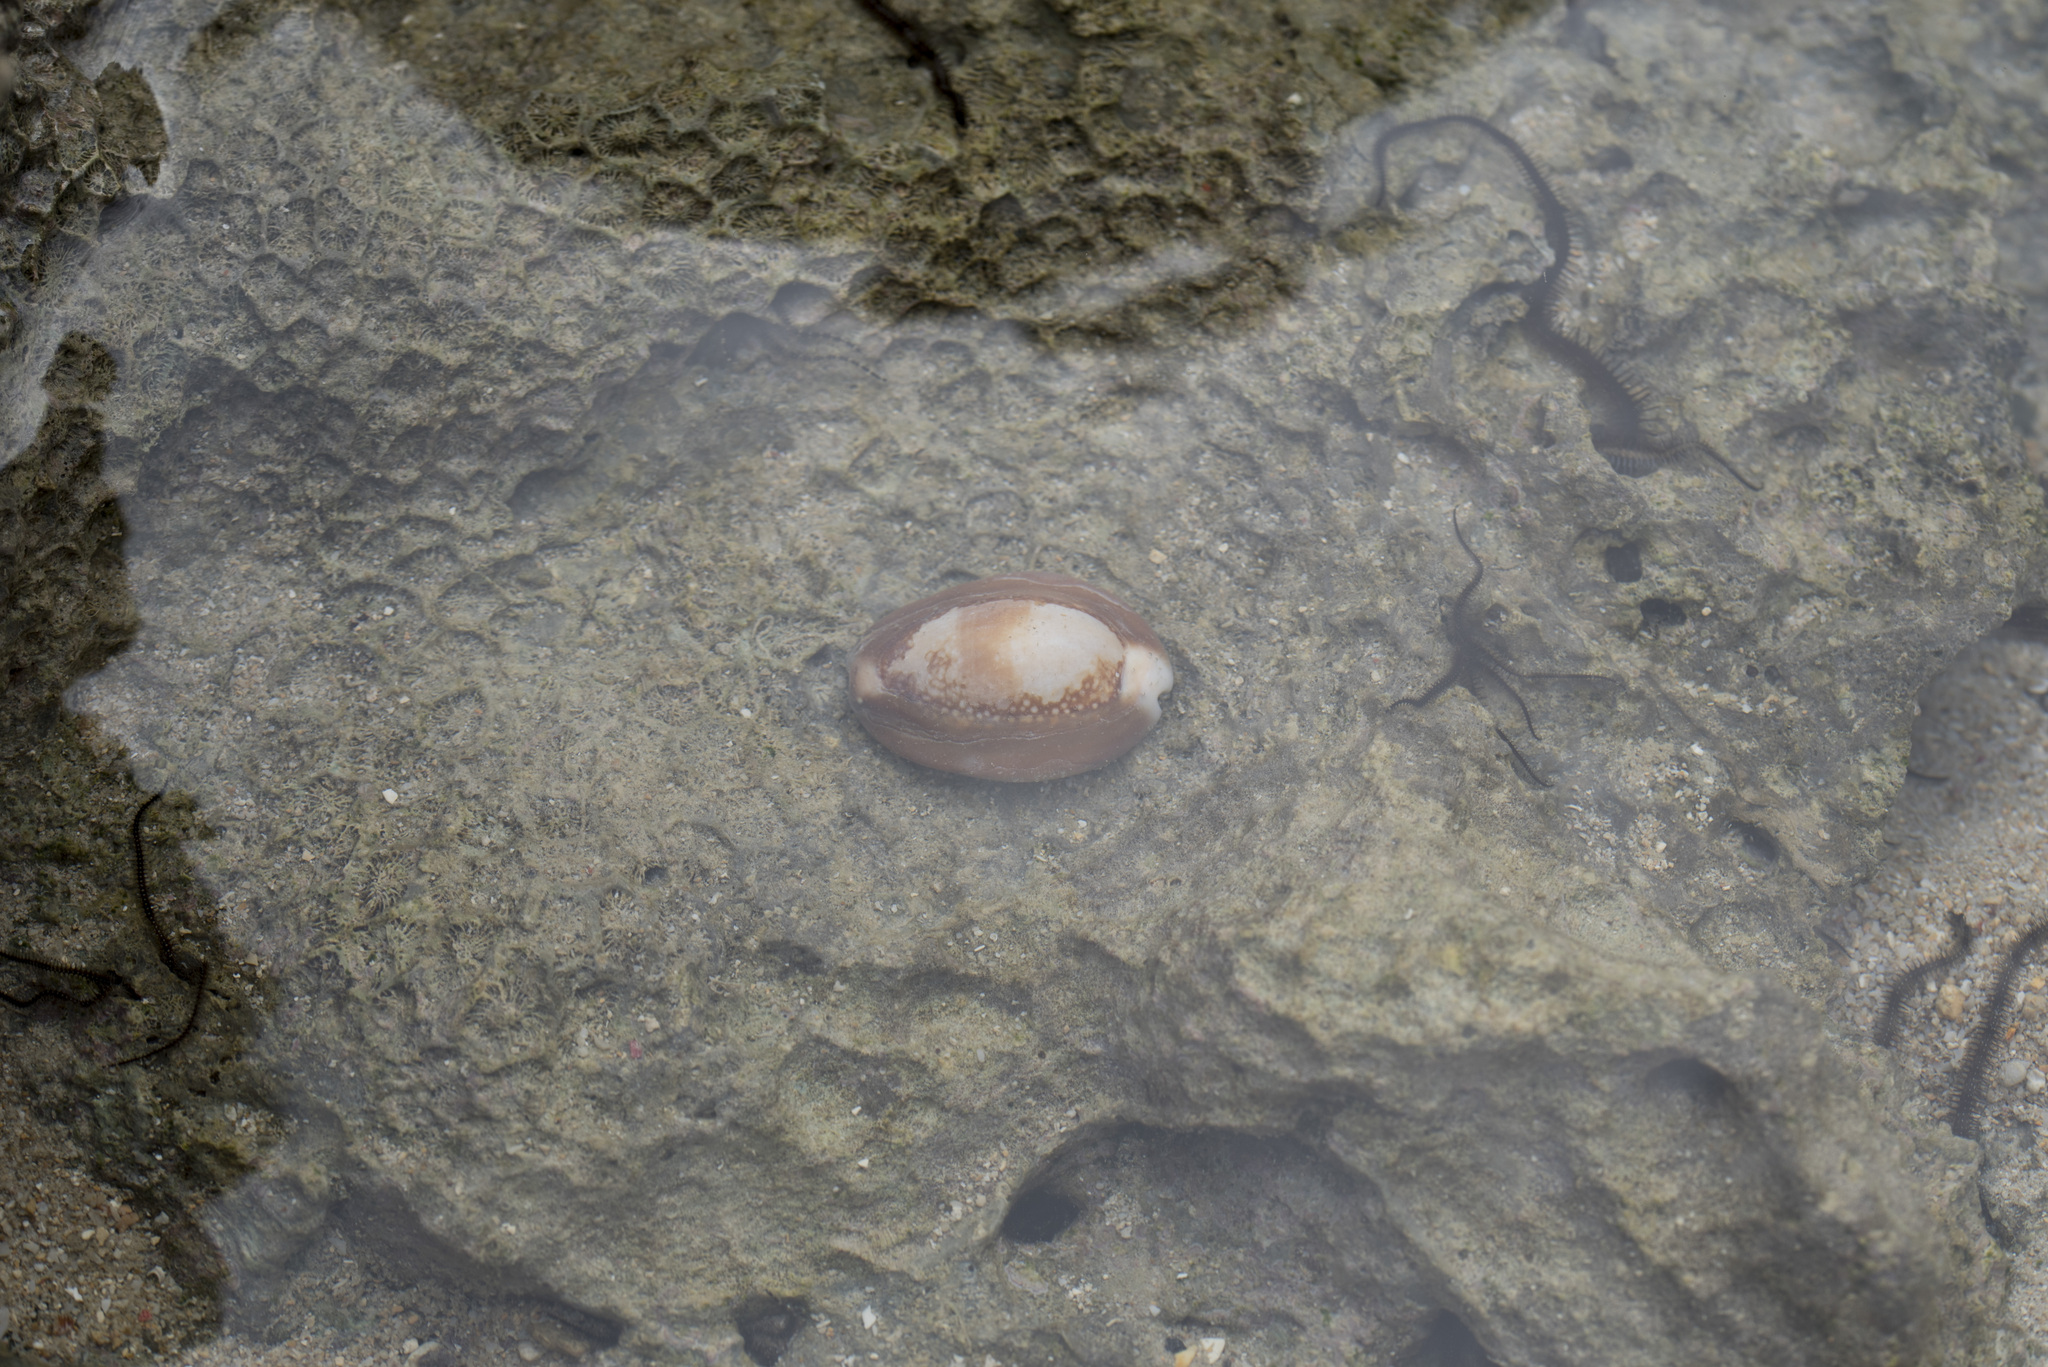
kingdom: Animalia
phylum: Mollusca
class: Gastropoda
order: Littorinimorpha
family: Cypraeidae
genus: Monetaria
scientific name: Monetaria caputserpentis
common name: Serpent's head cowrie
